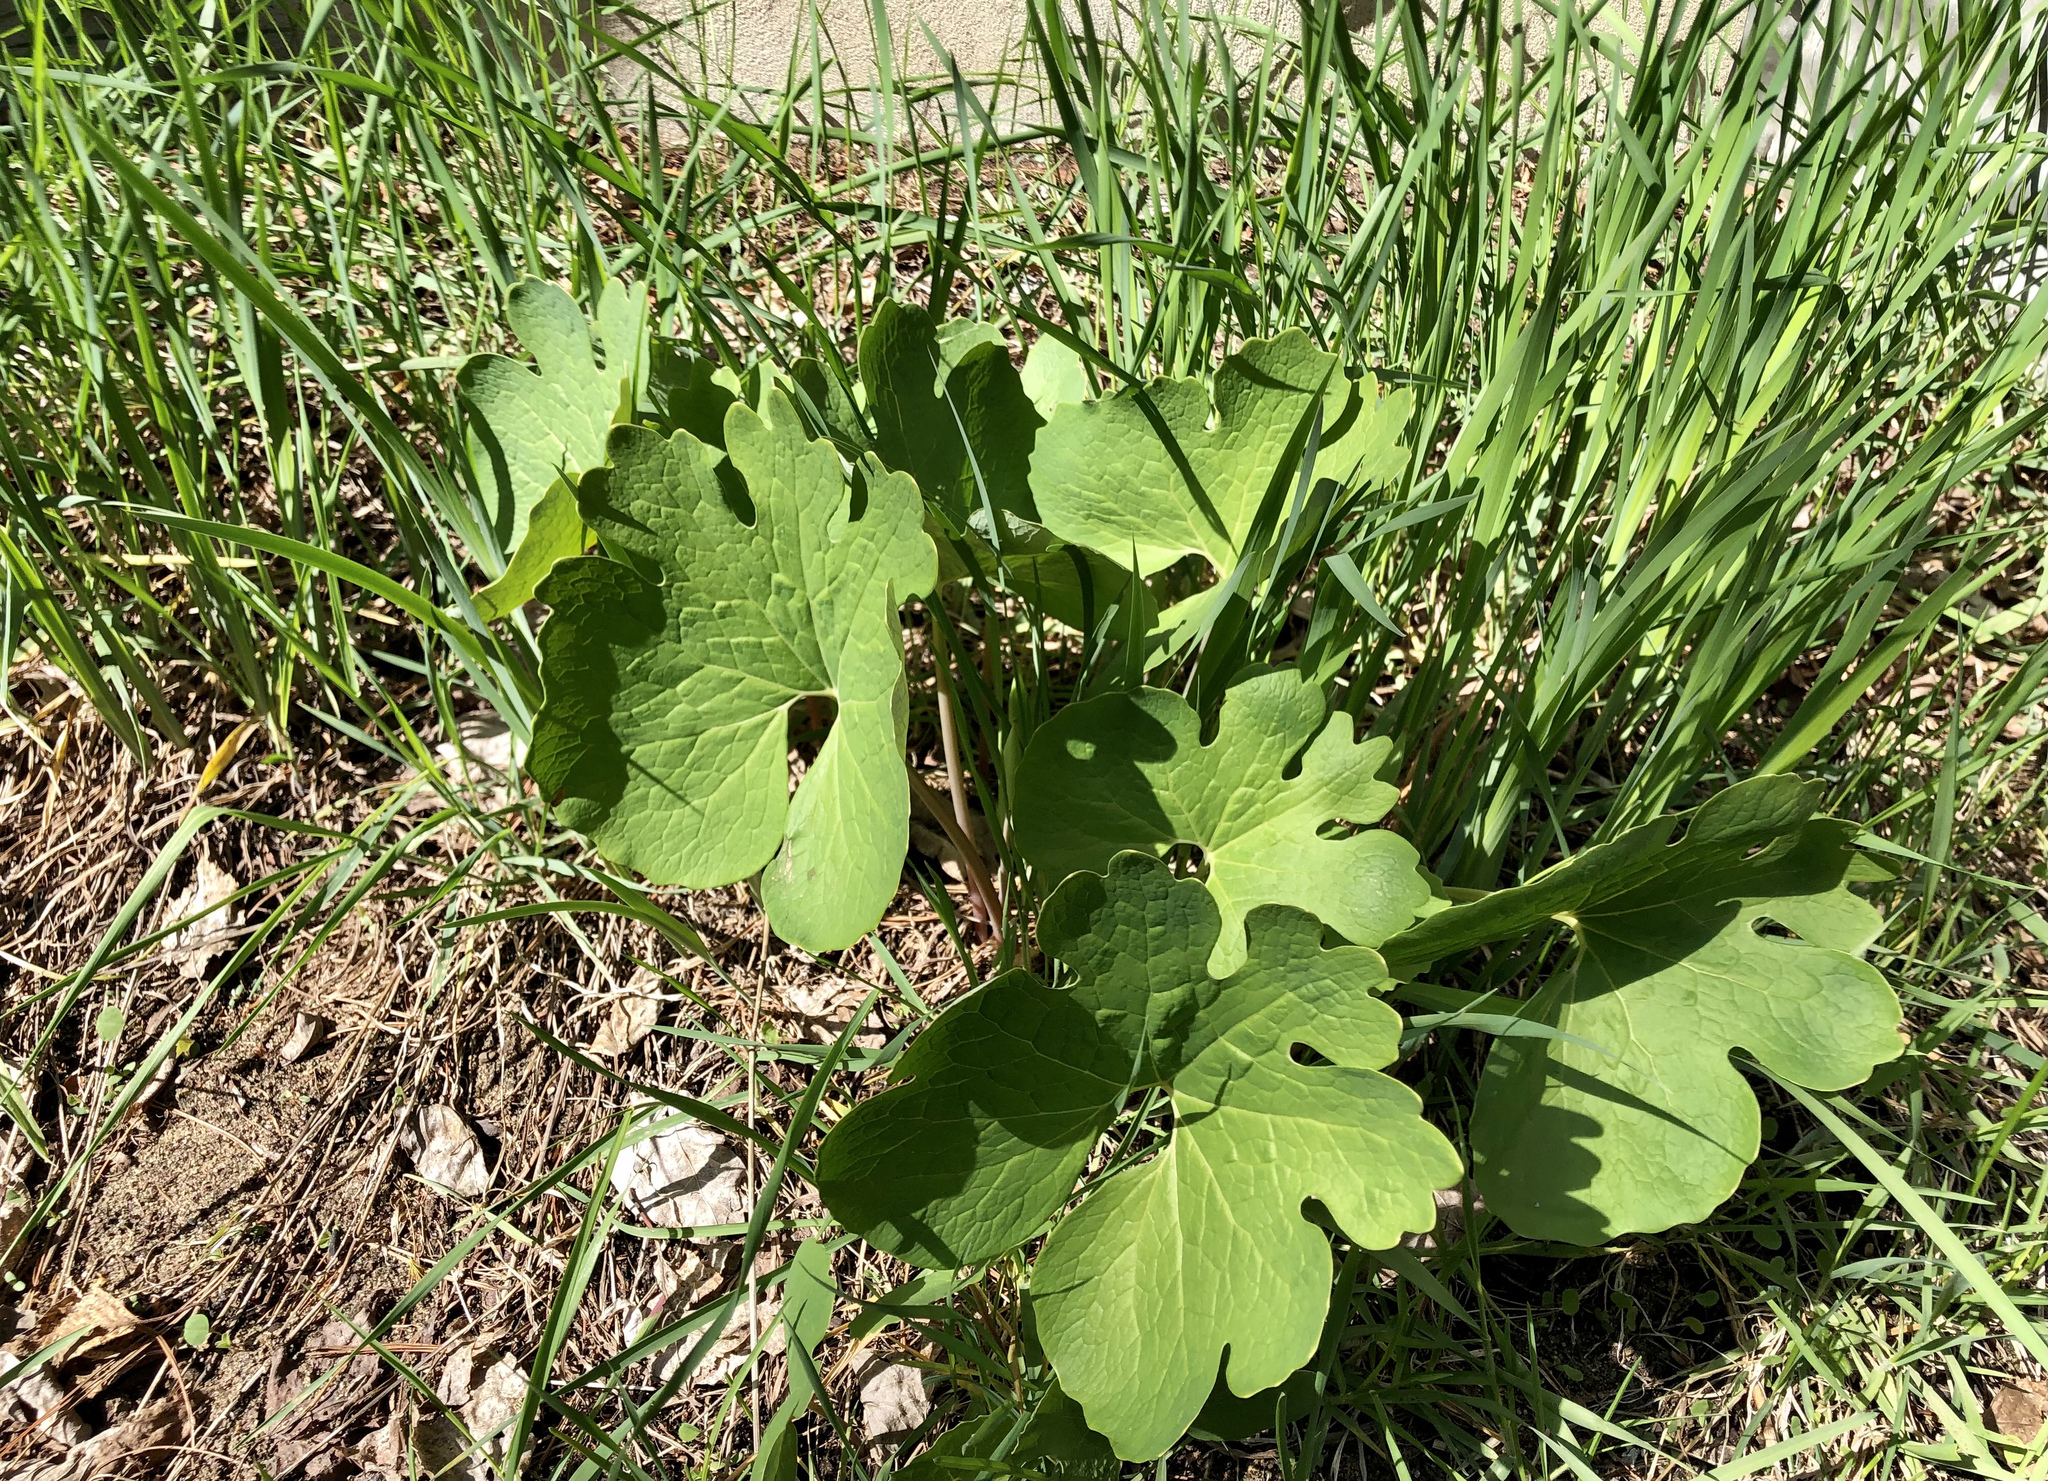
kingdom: Plantae
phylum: Tracheophyta
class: Magnoliopsida
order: Ranunculales
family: Papaveraceae
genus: Sanguinaria
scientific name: Sanguinaria canadensis
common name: Bloodroot
